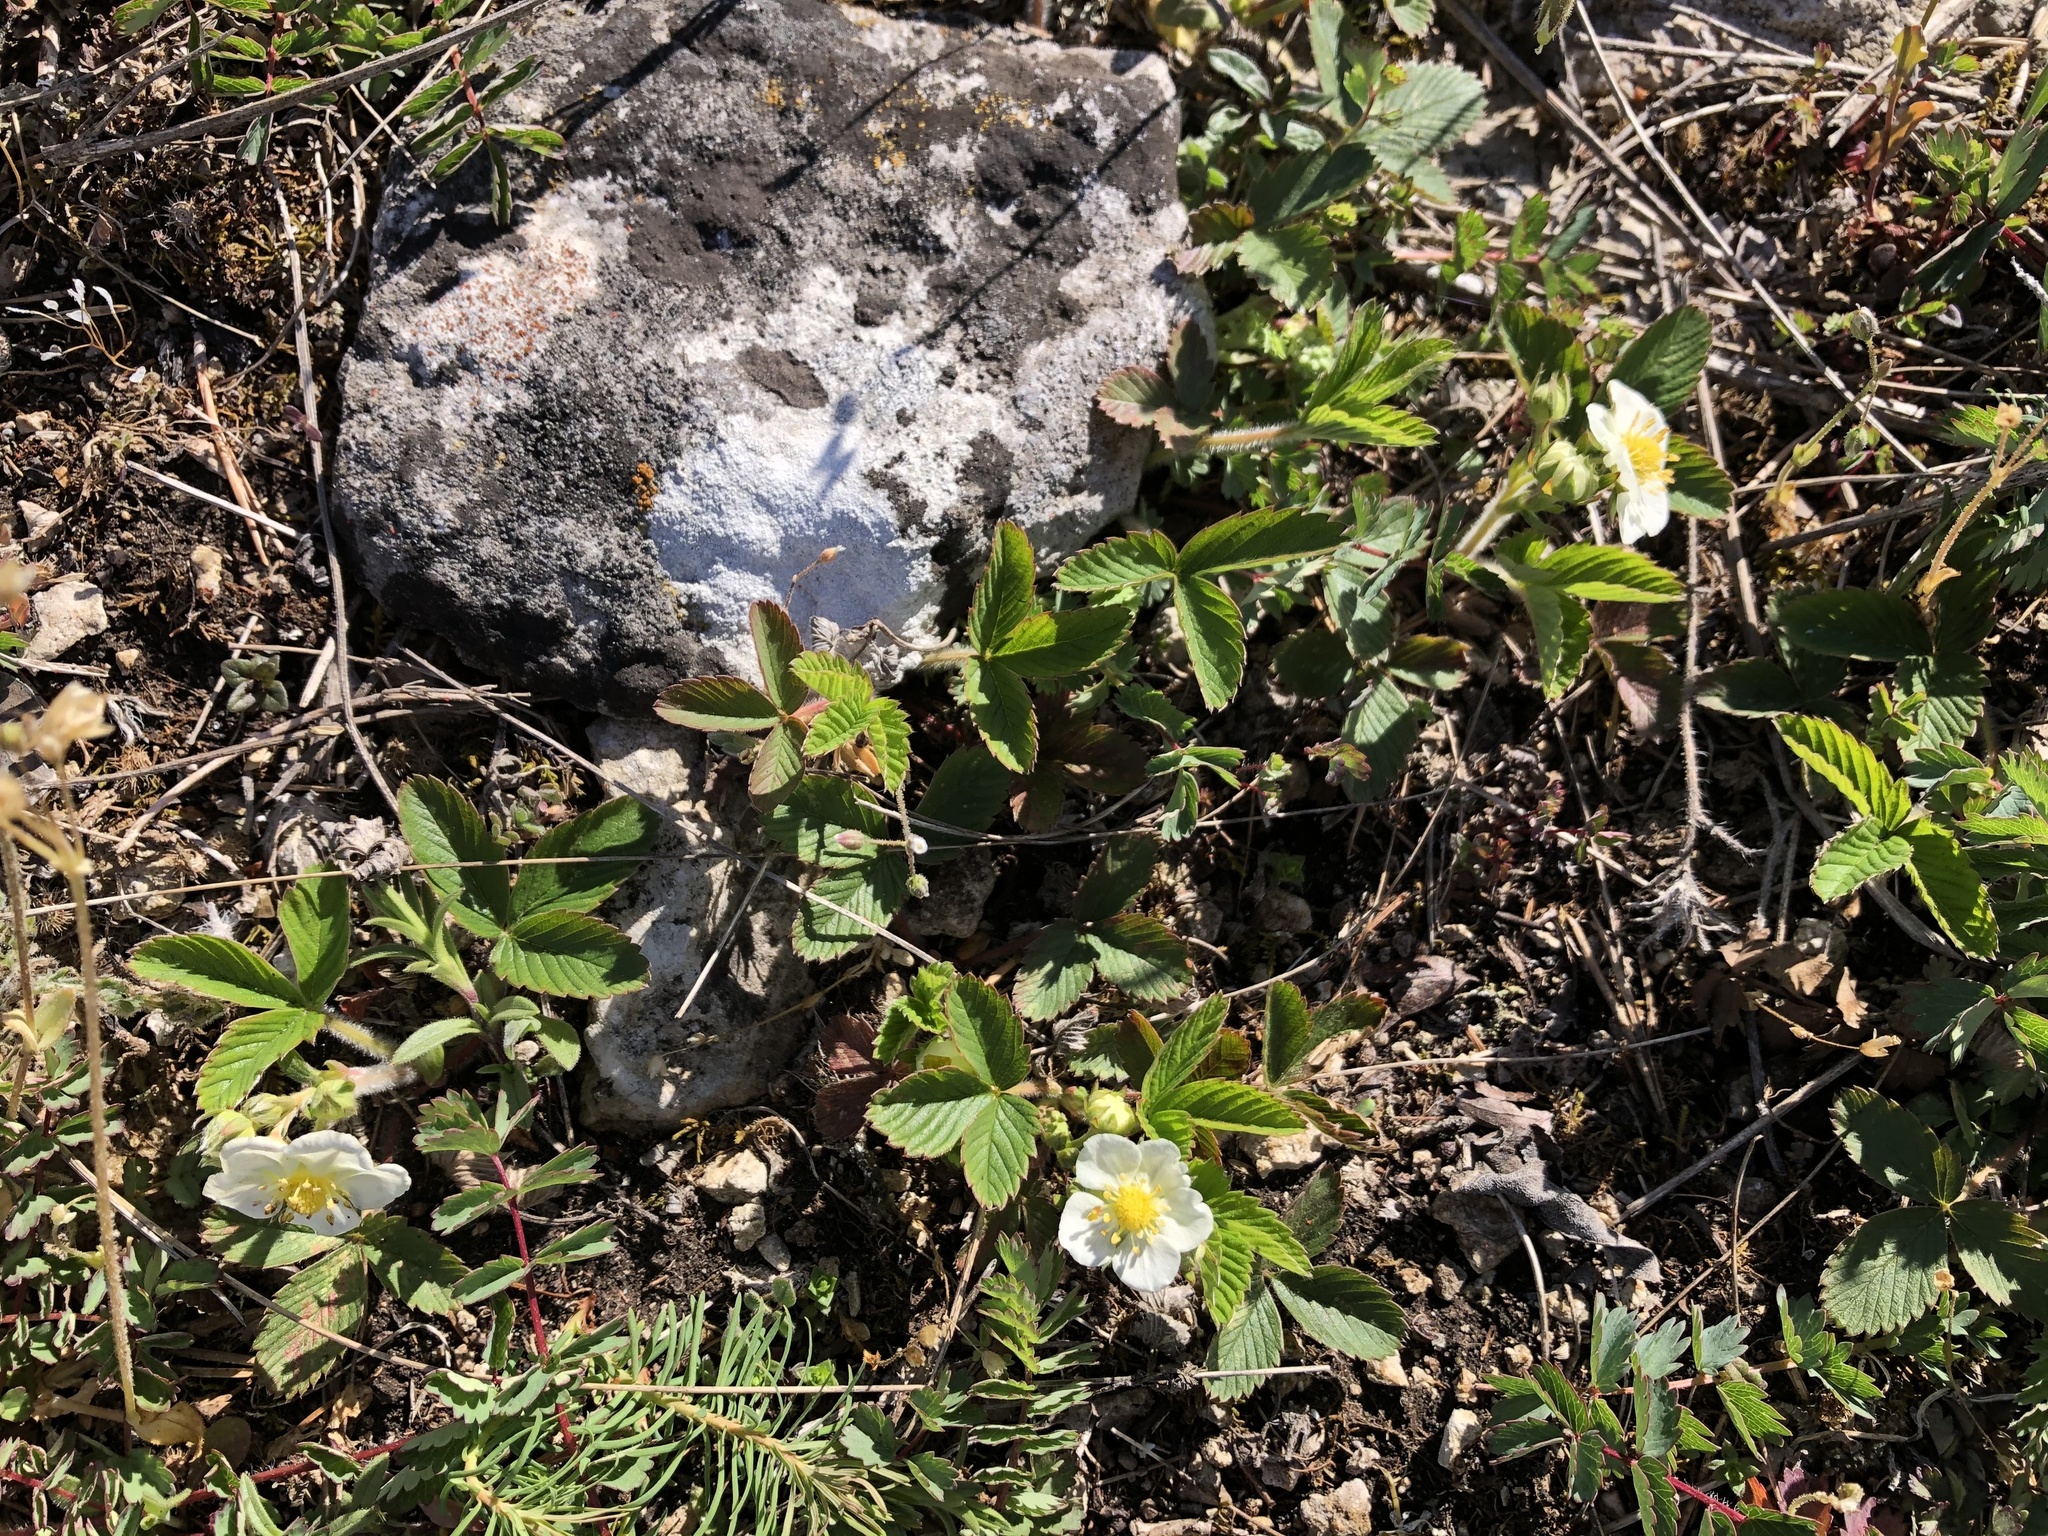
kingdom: Plantae
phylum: Tracheophyta
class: Magnoliopsida
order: Rosales
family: Rosaceae
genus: Fragaria
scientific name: Fragaria viridis
